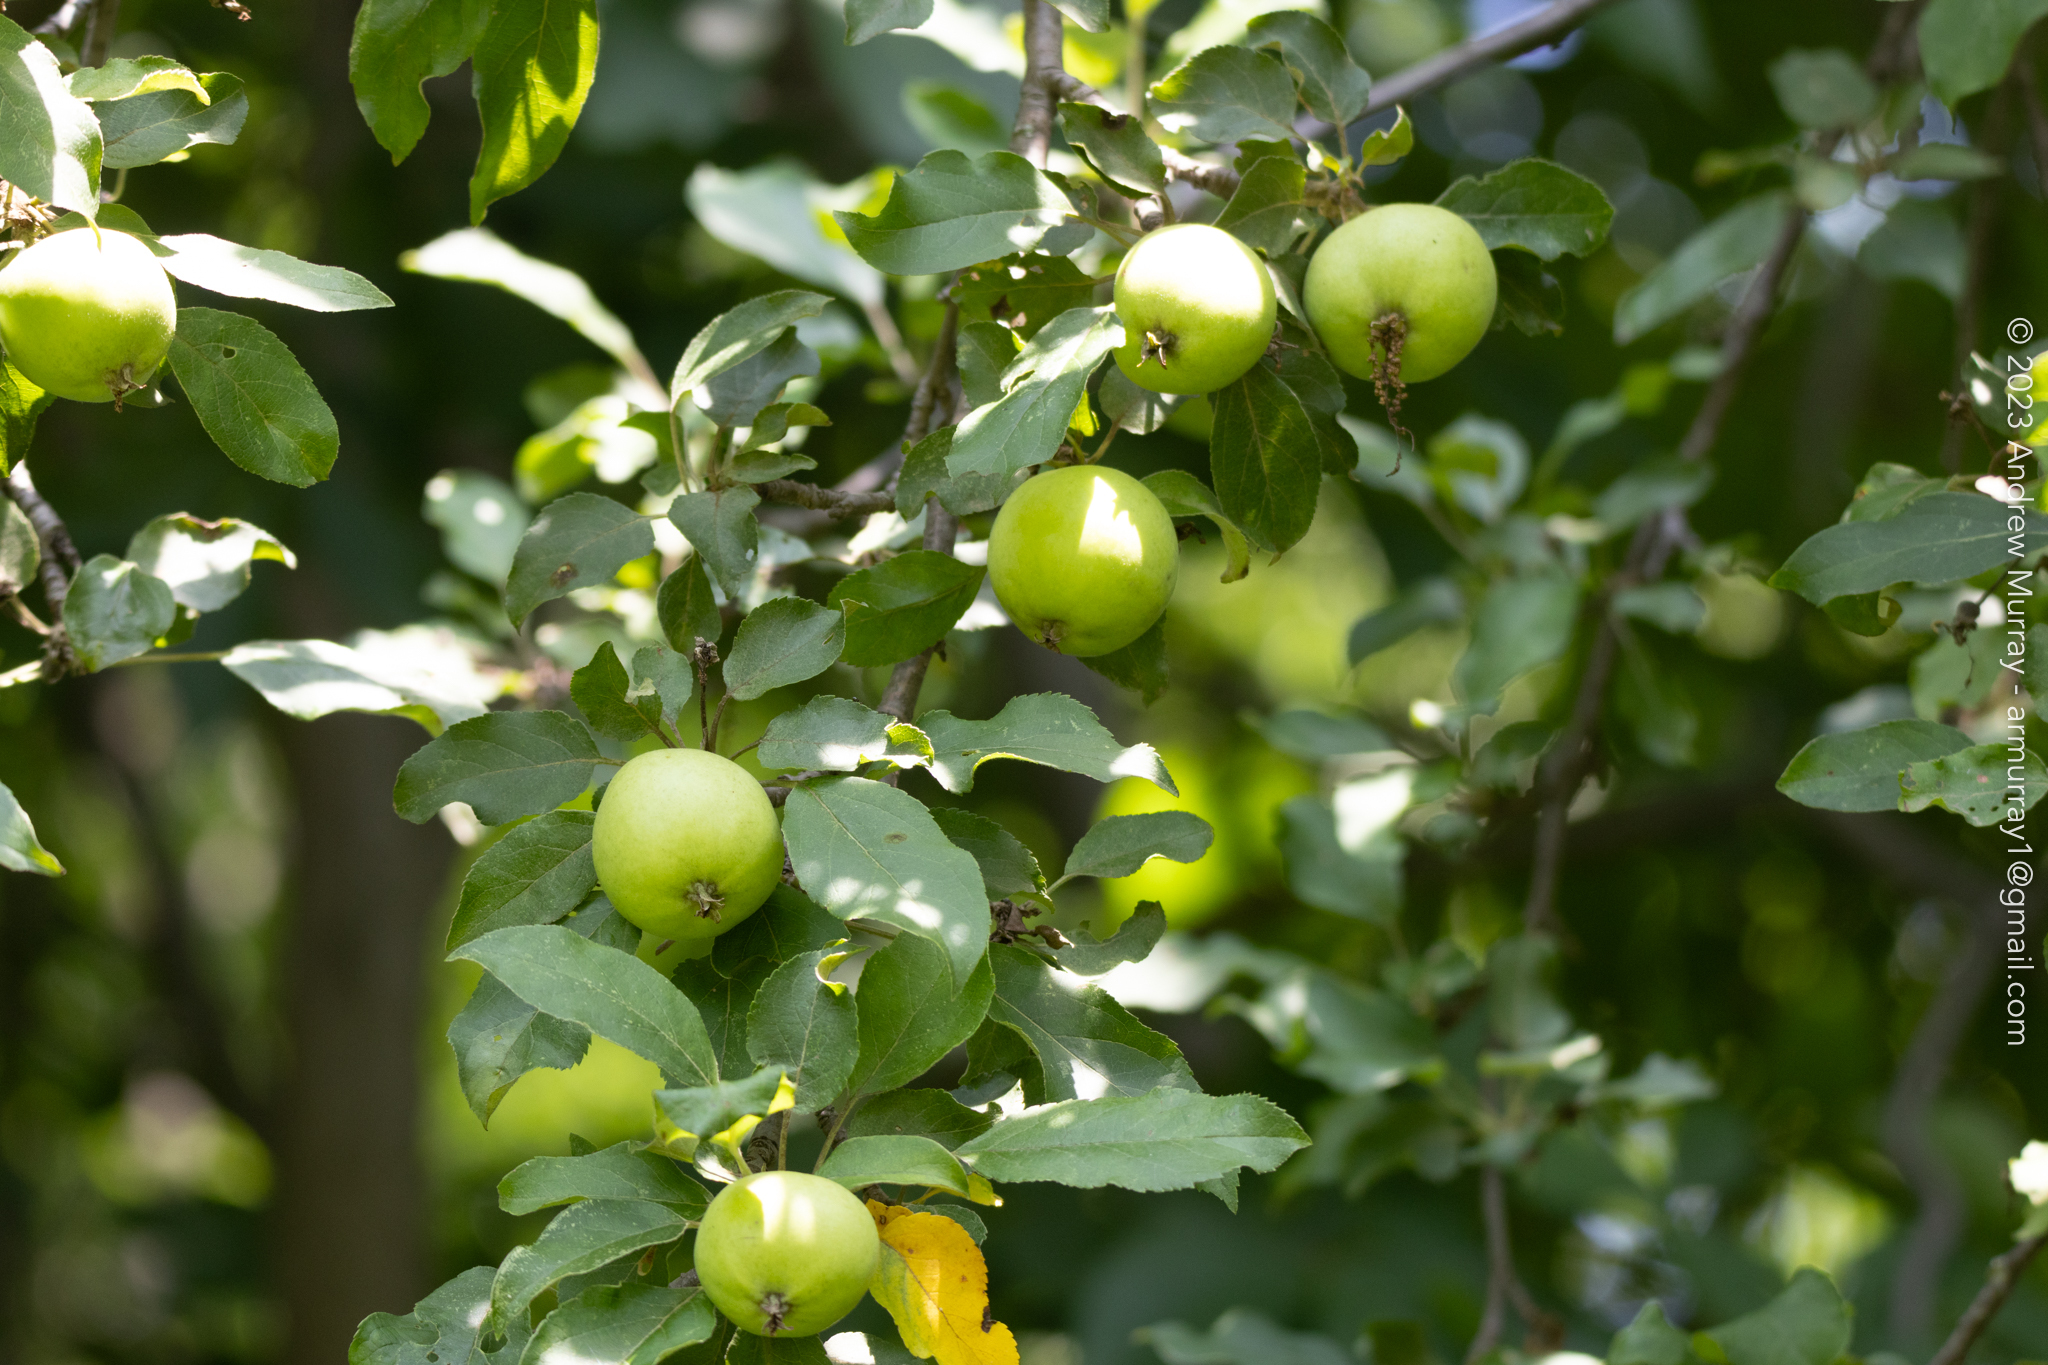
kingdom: Plantae
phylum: Tracheophyta
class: Magnoliopsida
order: Rosales
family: Rosaceae
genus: Malus
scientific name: Malus domestica
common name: Apple
